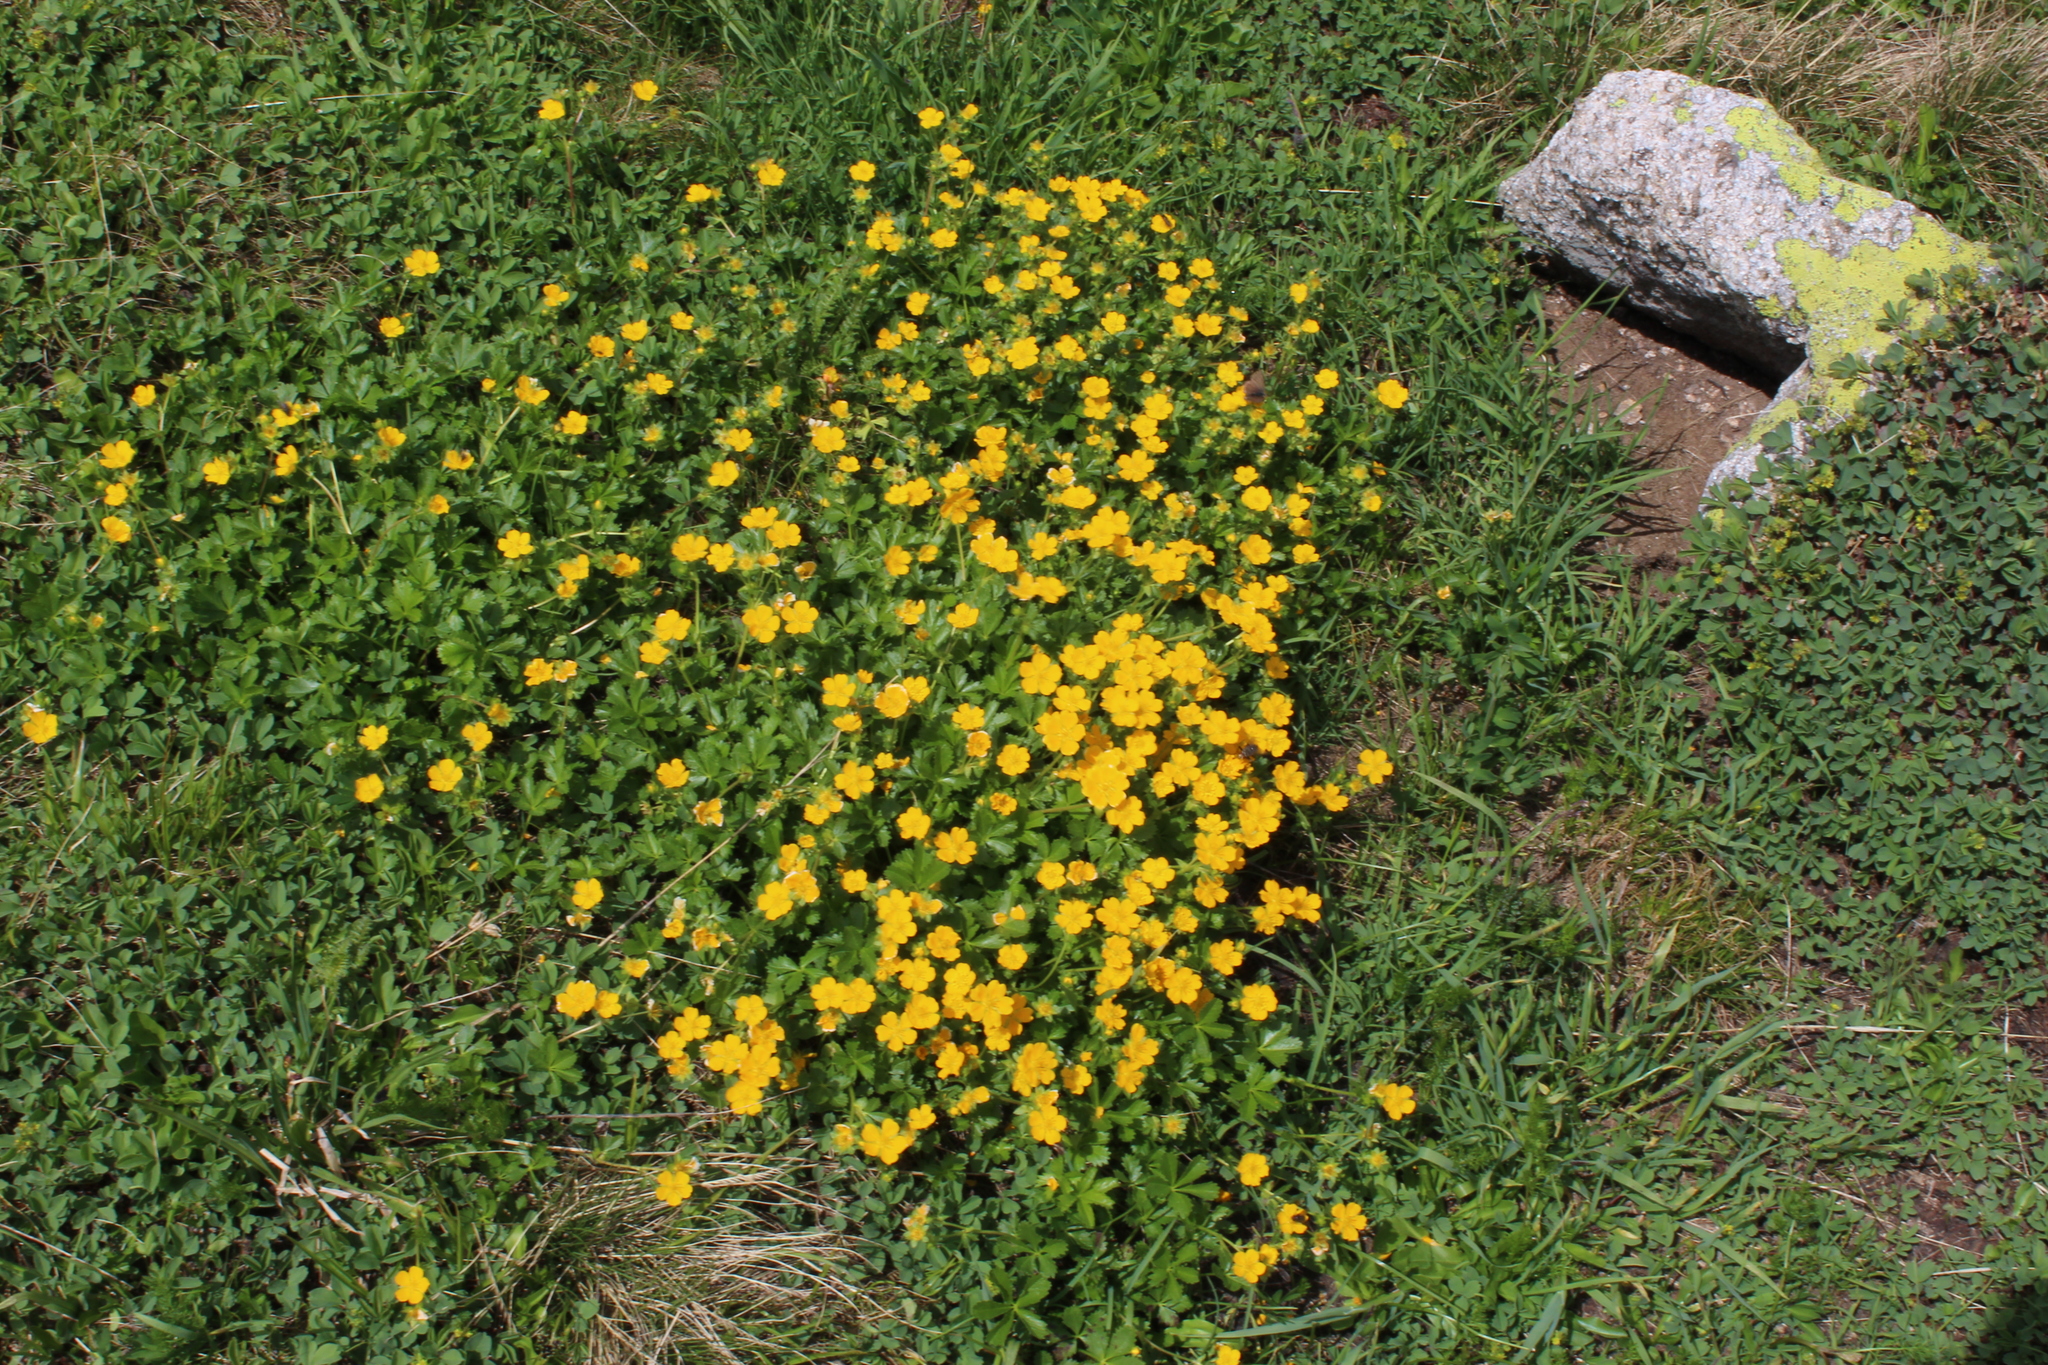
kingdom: Plantae
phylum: Tracheophyta
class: Magnoliopsida
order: Rosales
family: Rosaceae
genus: Potentilla
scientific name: Potentilla ruprechtii
